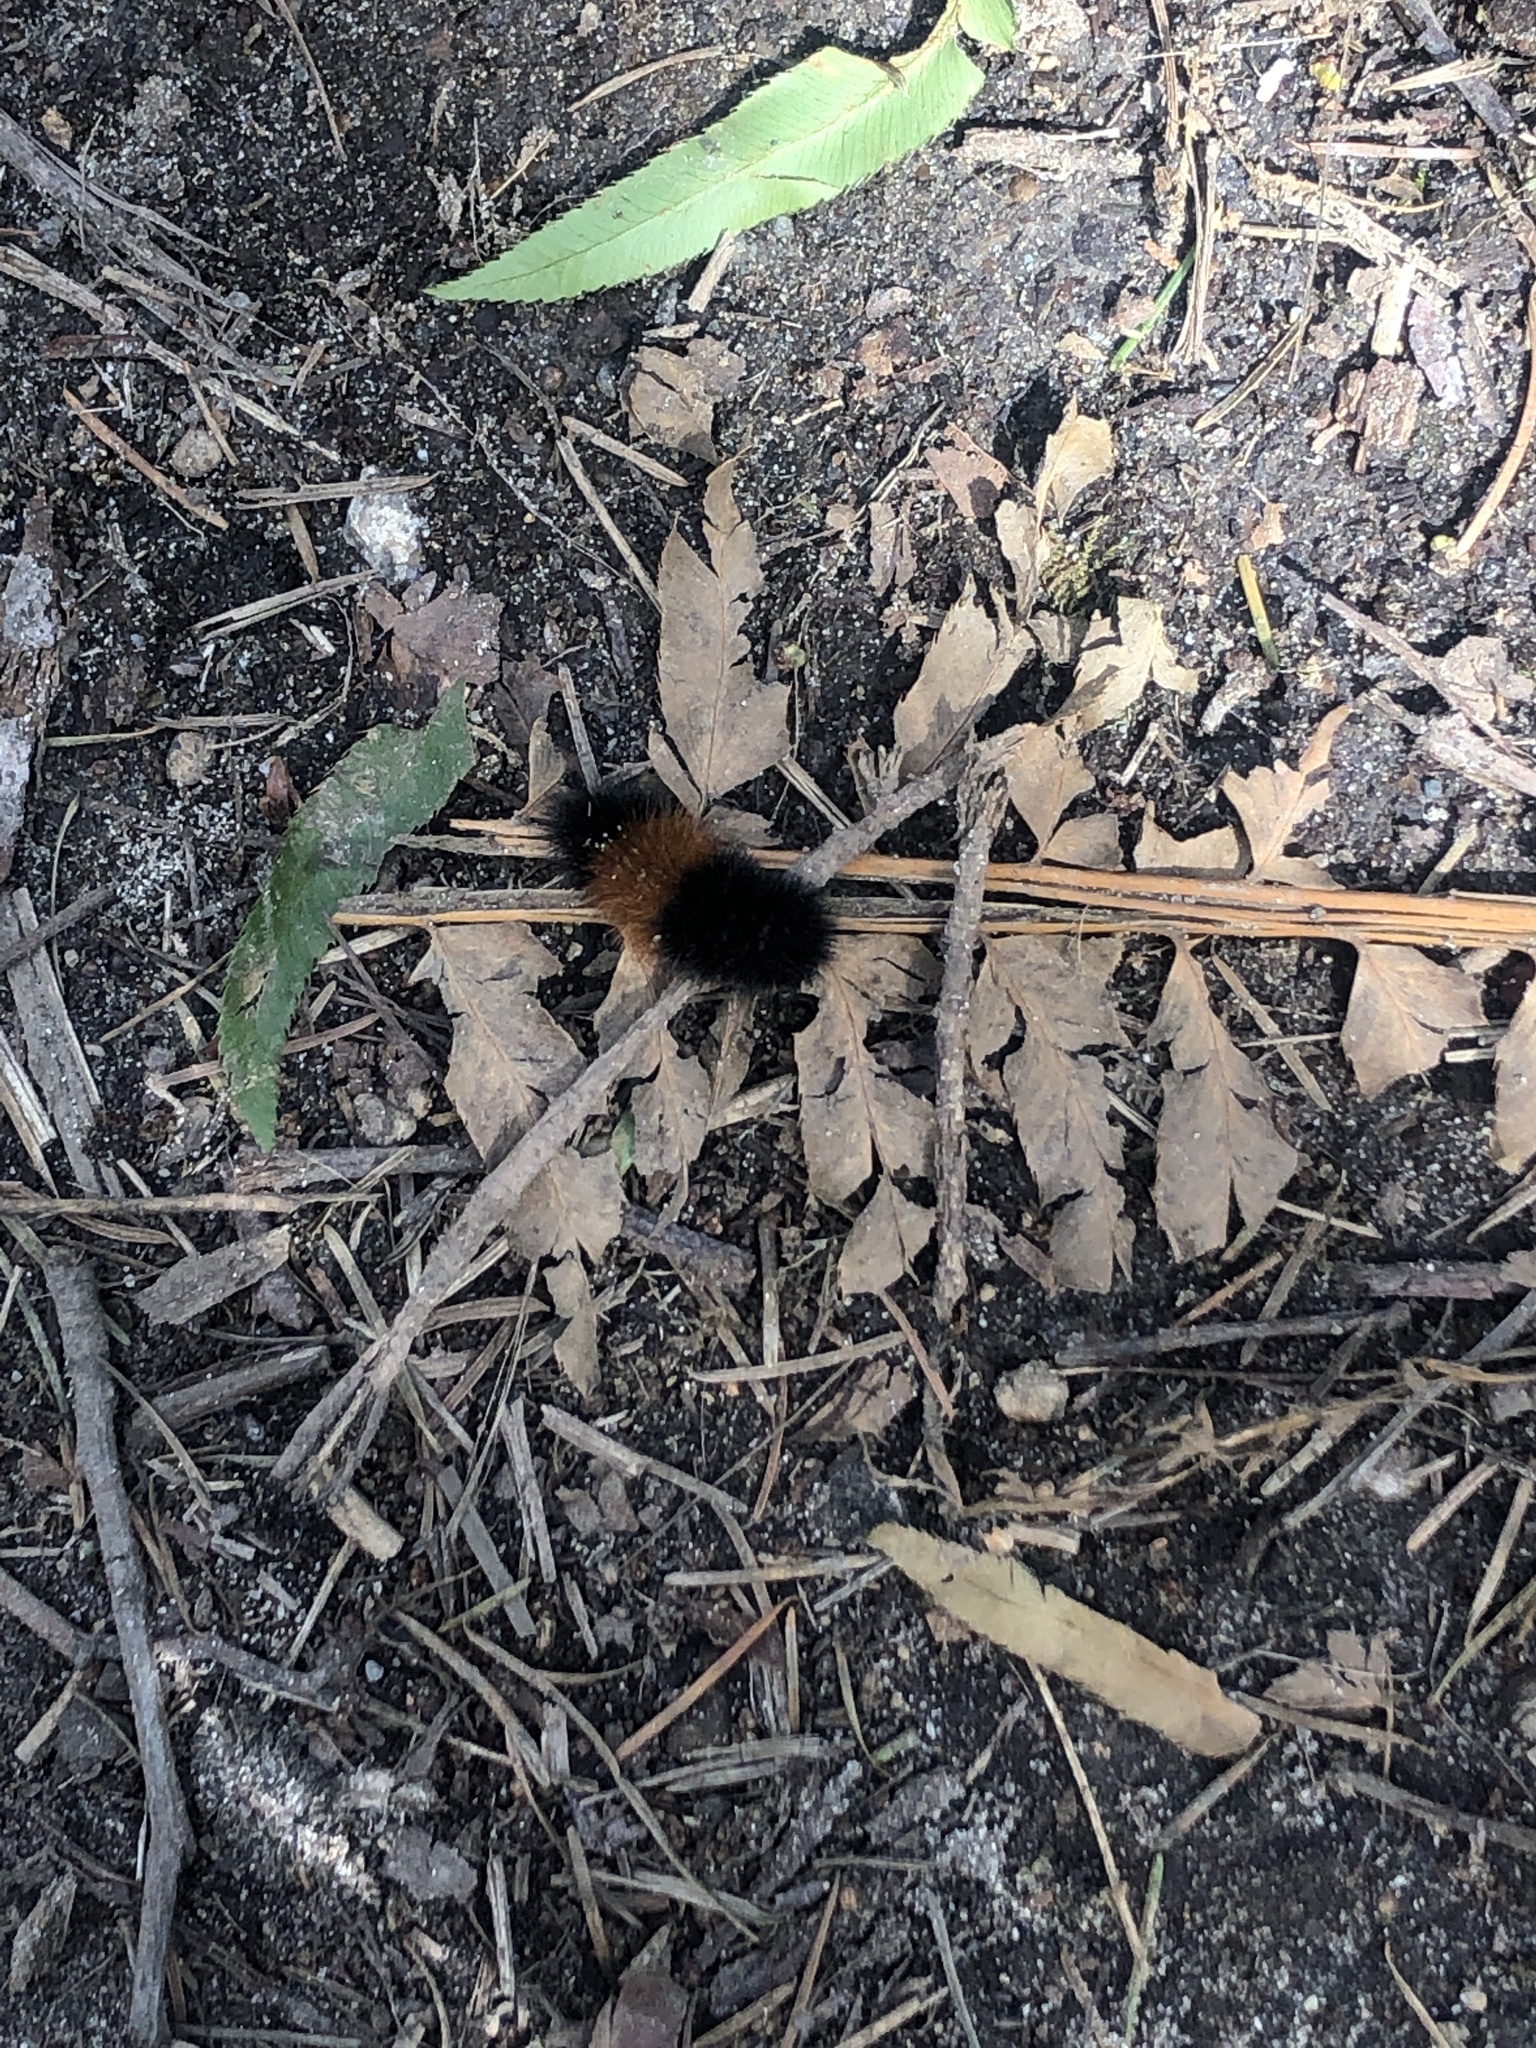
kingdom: Animalia
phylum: Arthropoda
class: Insecta
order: Lepidoptera
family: Erebidae
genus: Pyrrharctia
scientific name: Pyrrharctia isabella
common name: Isabella tiger moth
